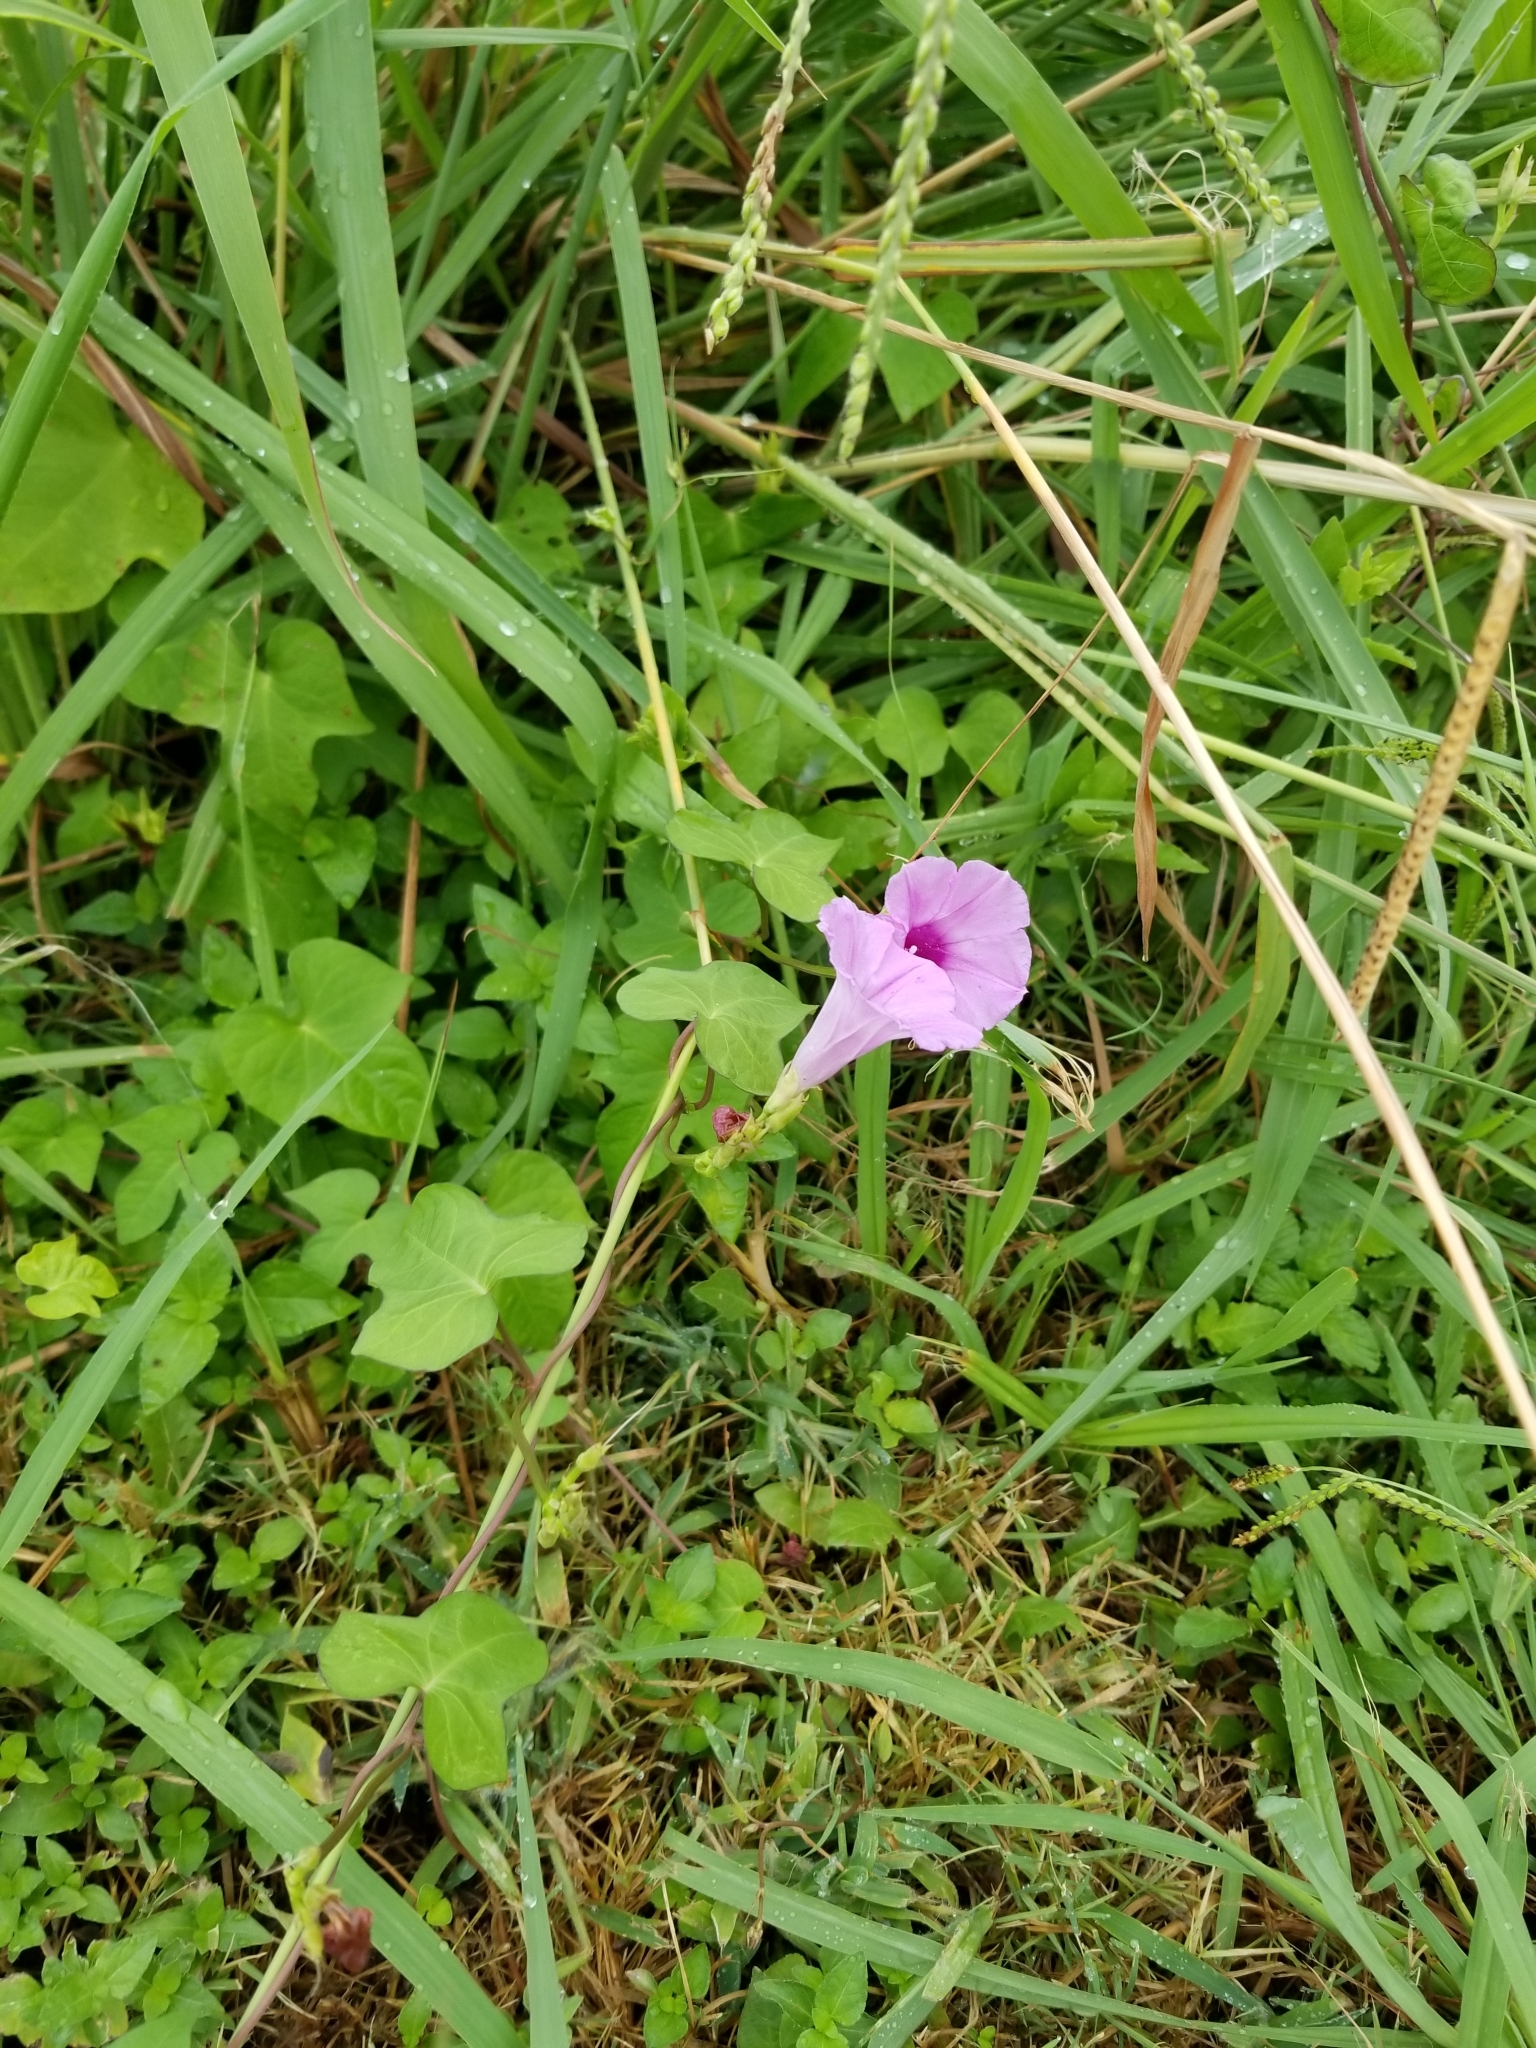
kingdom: Plantae
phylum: Tracheophyta
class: Magnoliopsida
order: Solanales
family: Convolvulaceae
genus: Ipomoea
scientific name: Ipomoea cordatotriloba
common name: Cotton morning glory
